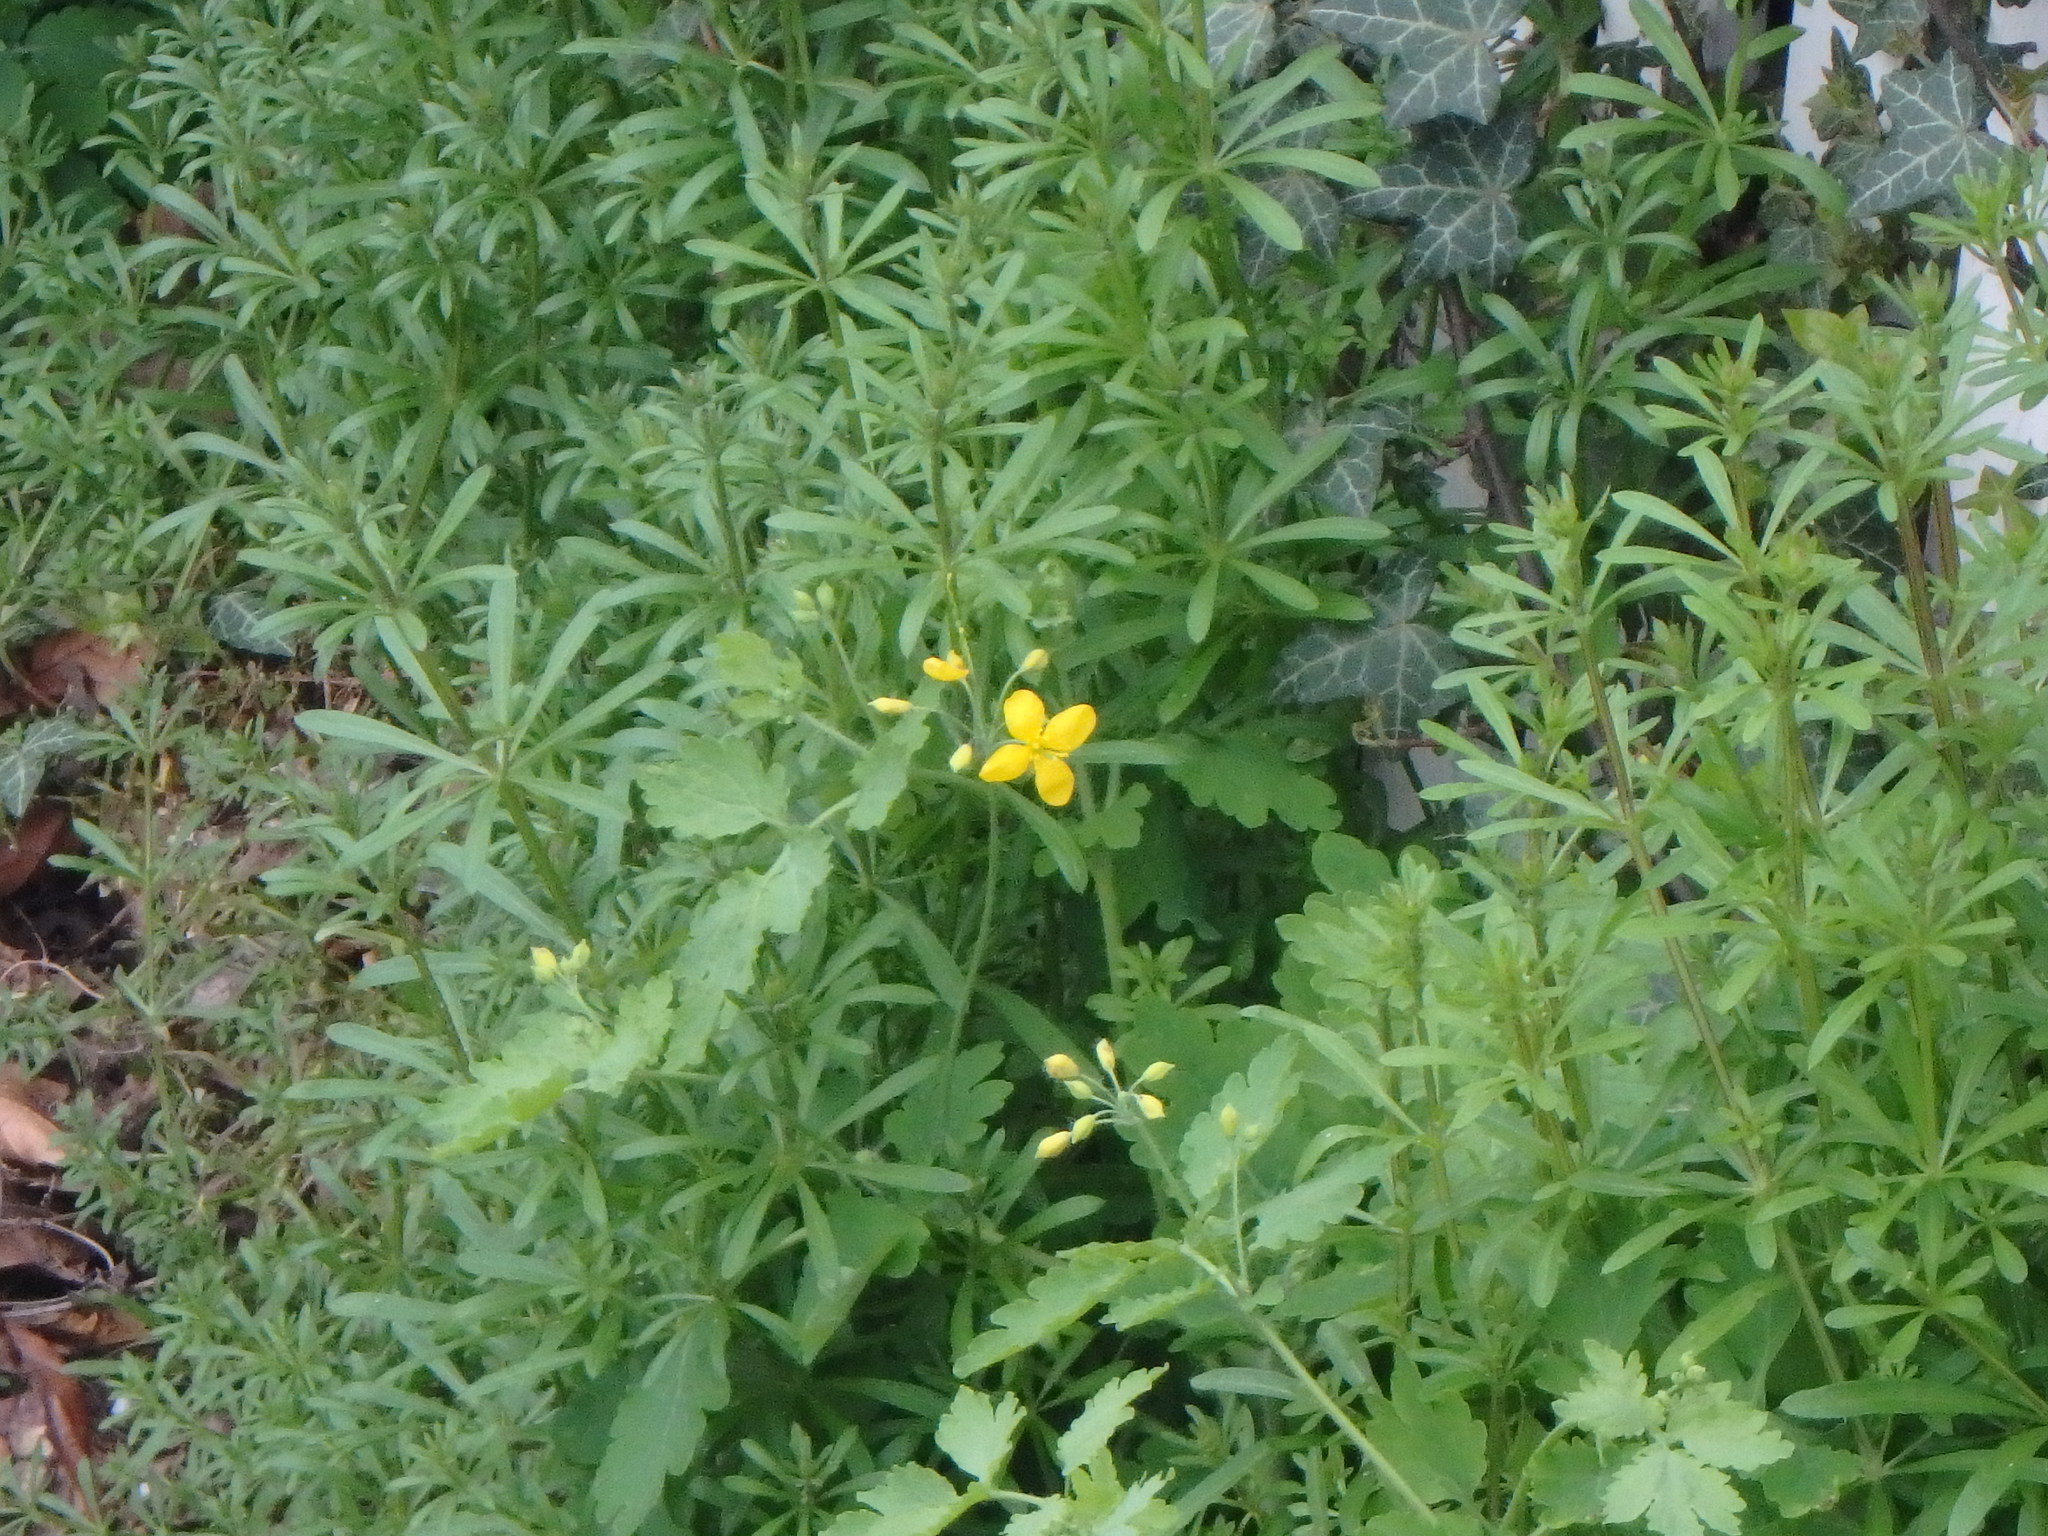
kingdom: Plantae
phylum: Tracheophyta
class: Magnoliopsida
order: Ranunculales
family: Papaveraceae
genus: Chelidonium
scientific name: Chelidonium majus
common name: Greater celandine
